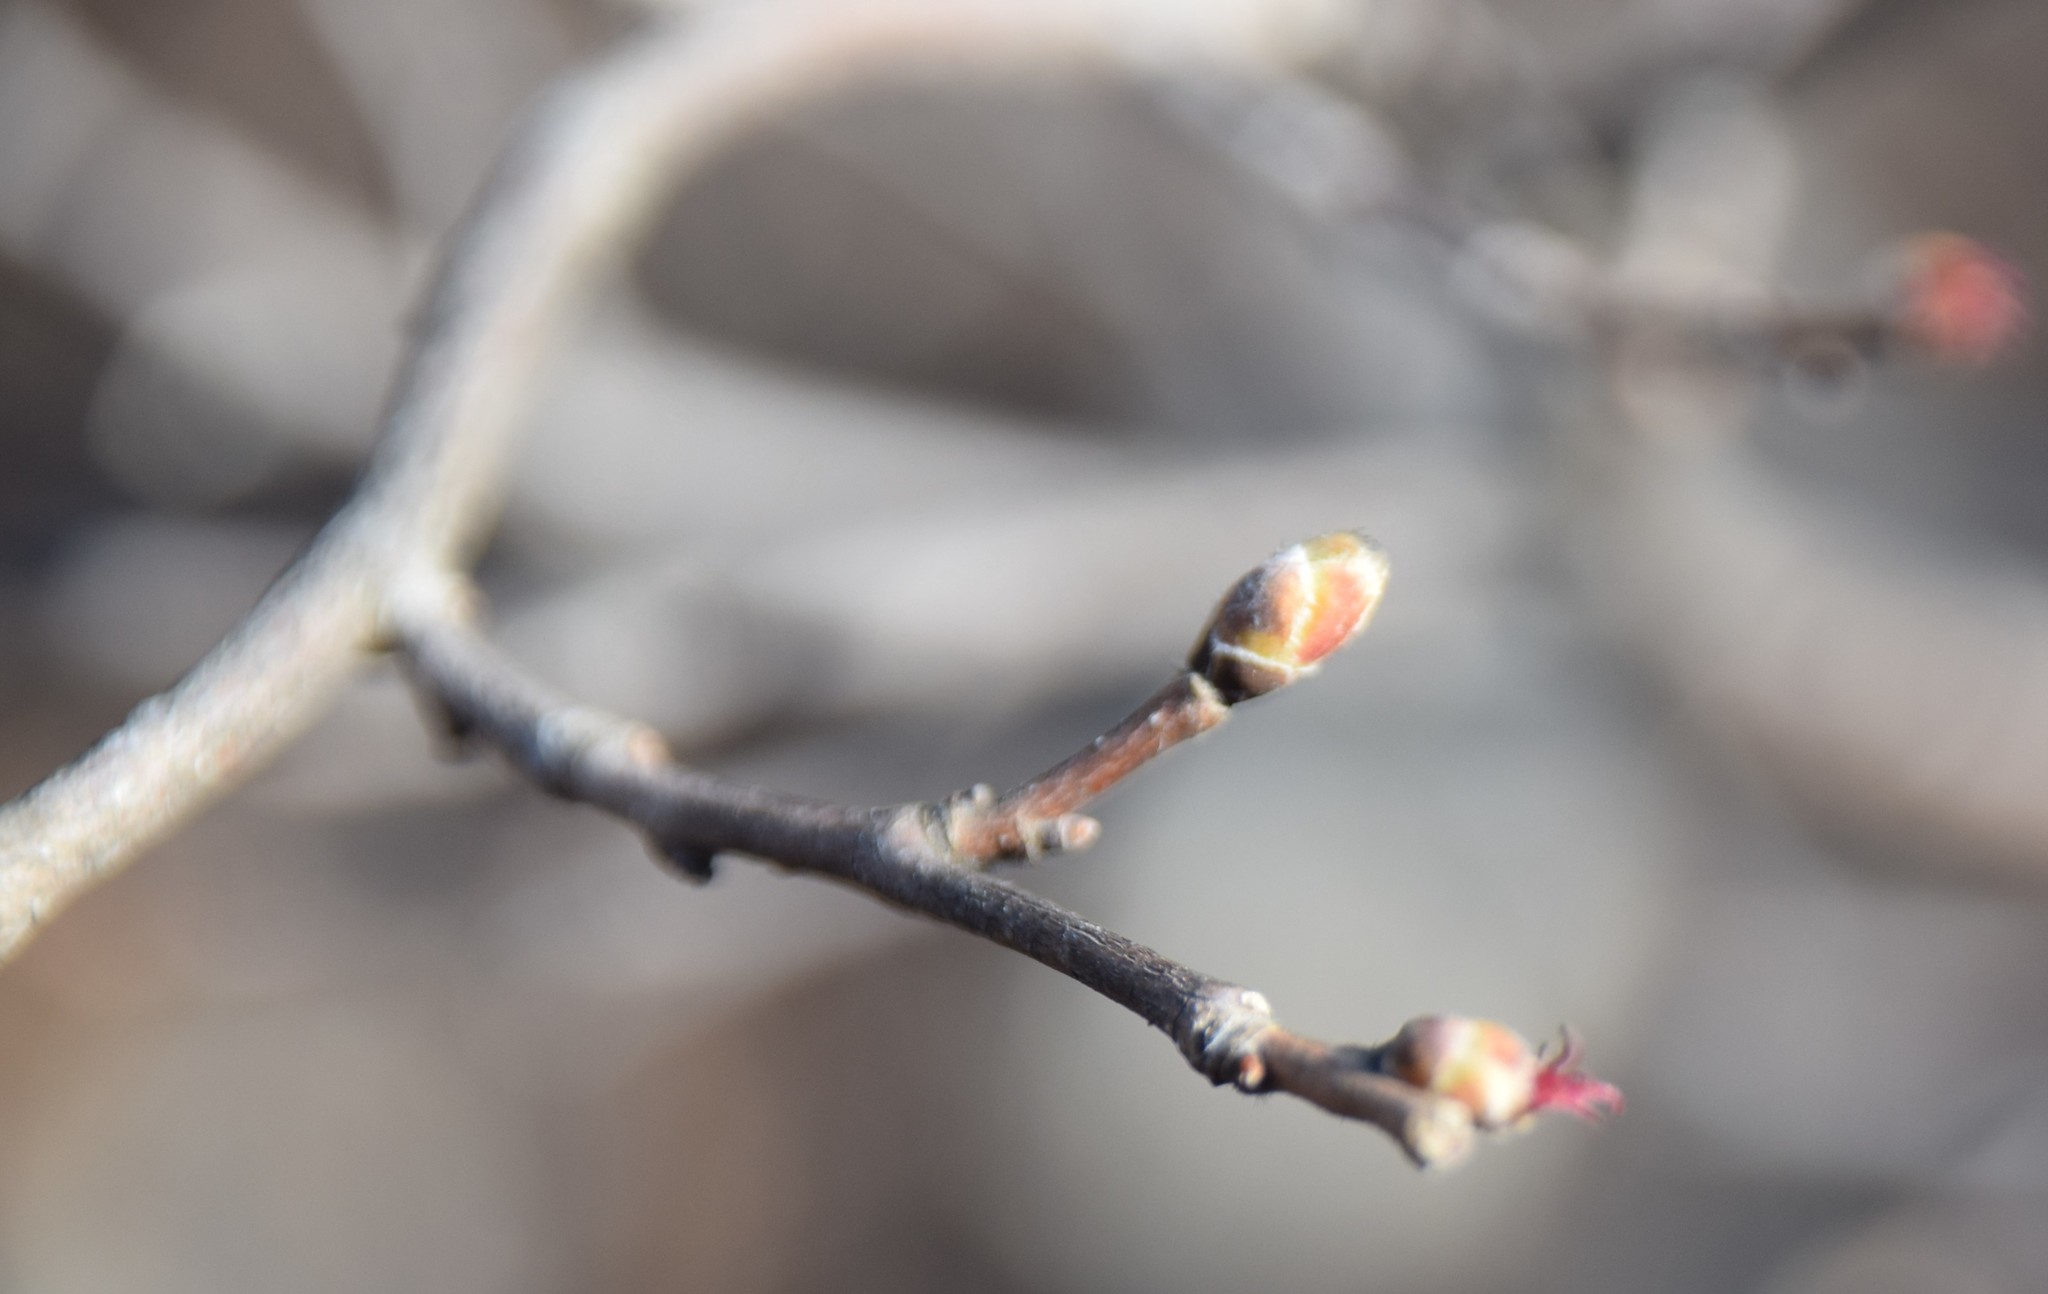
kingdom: Plantae
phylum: Tracheophyta
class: Magnoliopsida
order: Fagales
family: Betulaceae
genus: Corylus
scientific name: Corylus cornuta
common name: Beaked hazel
